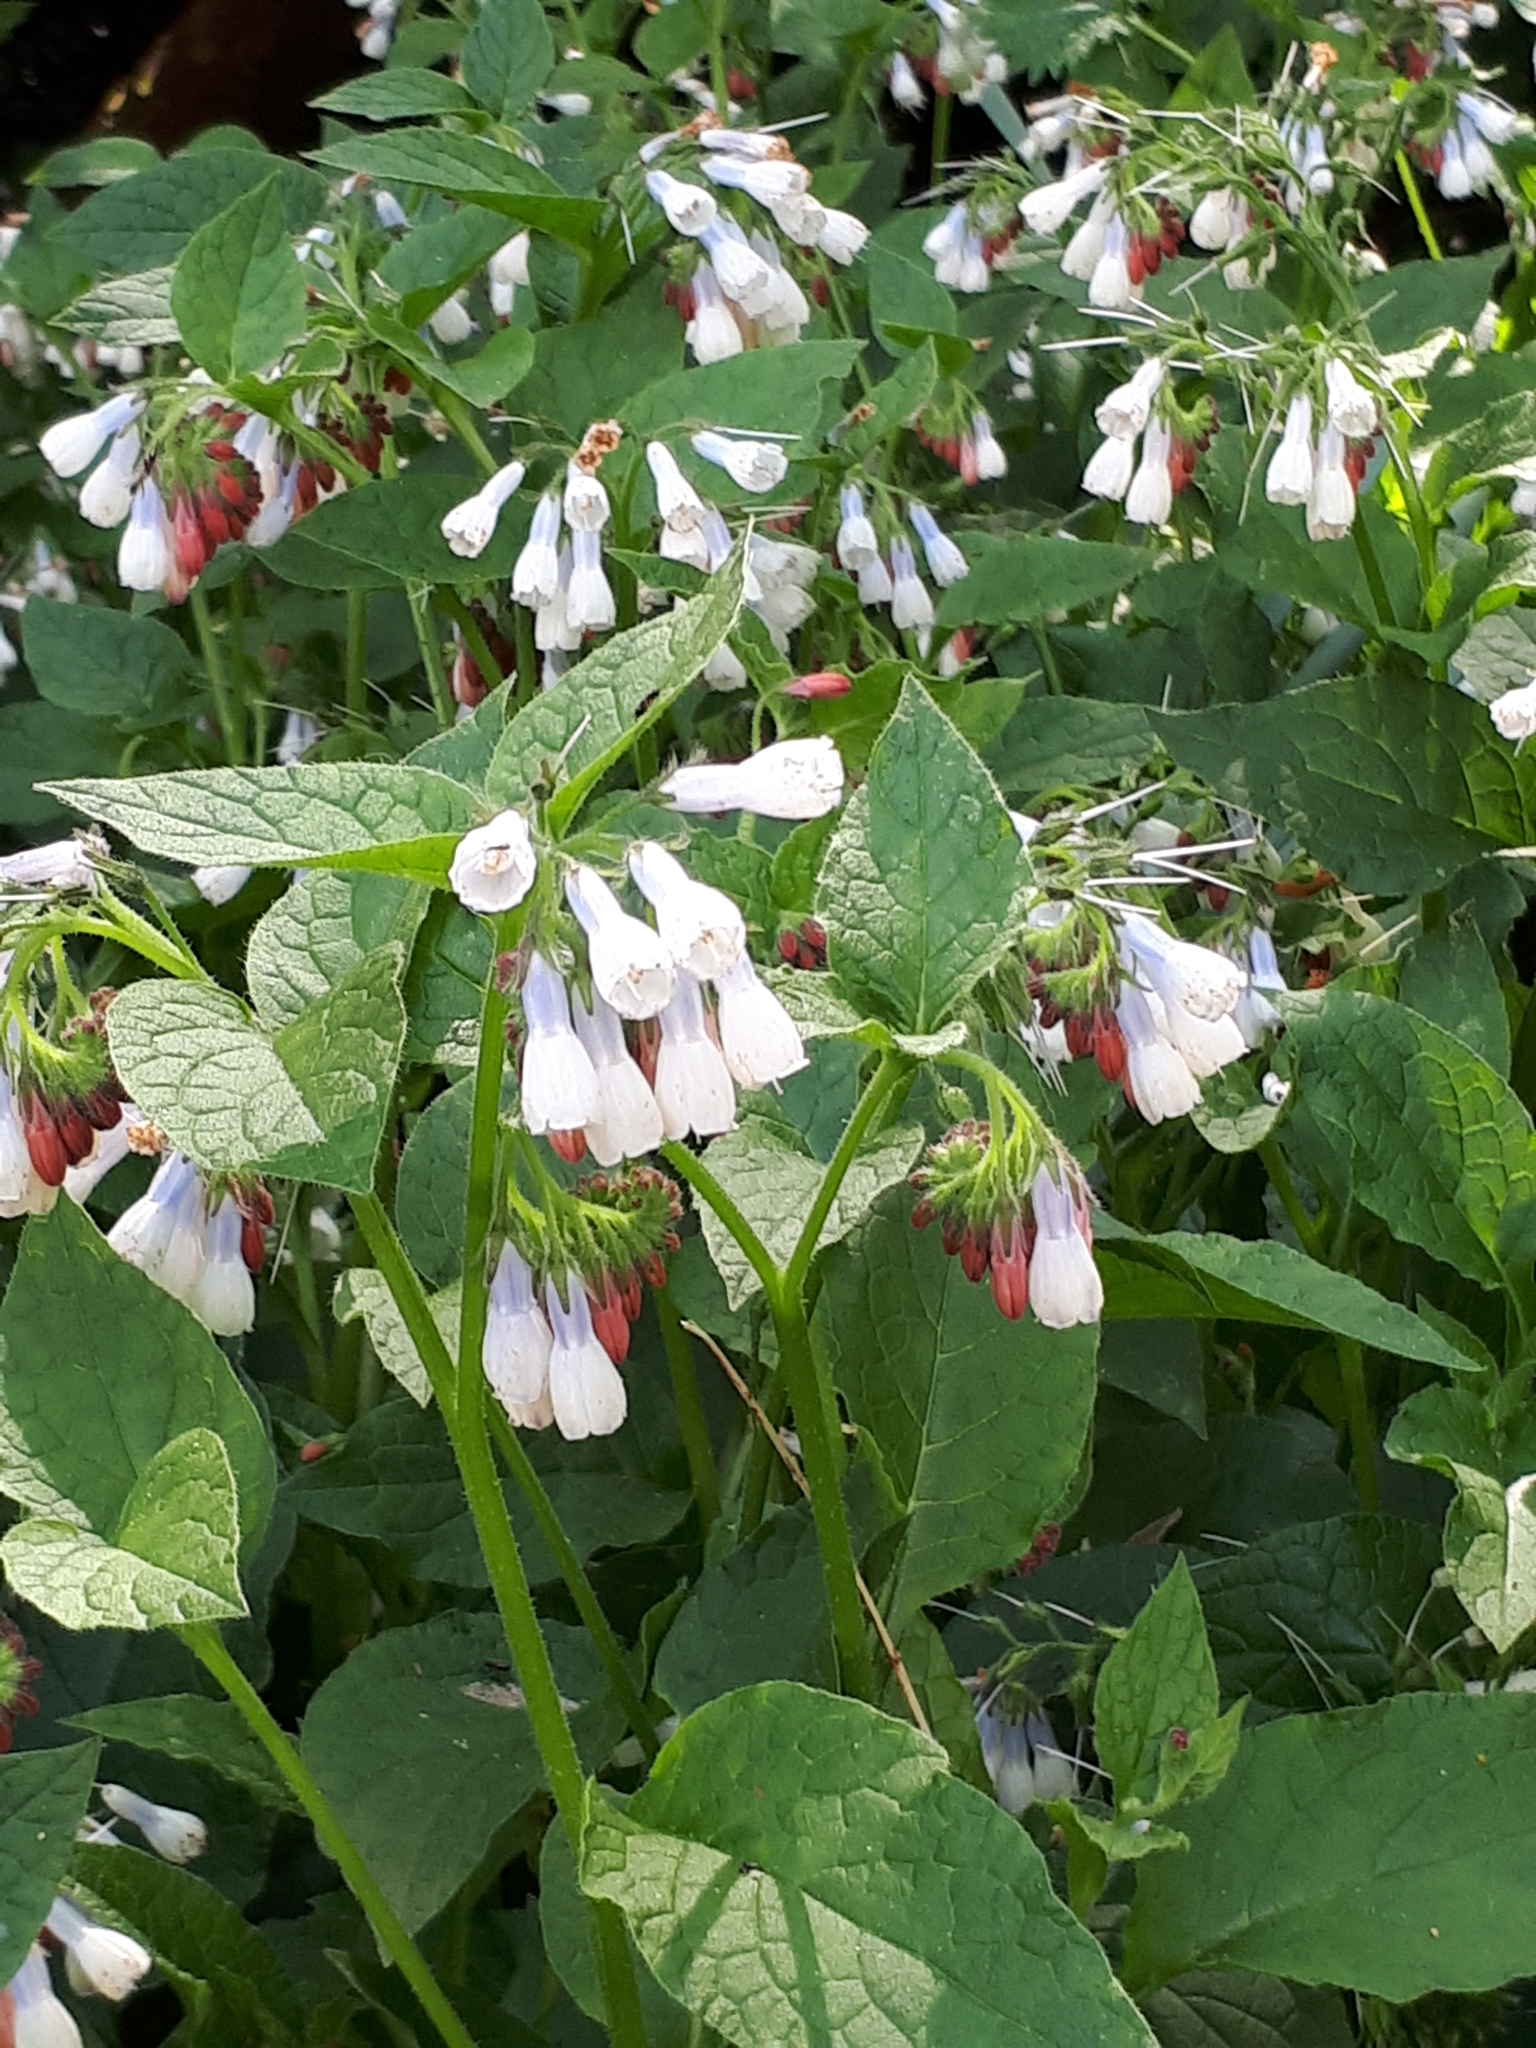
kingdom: Plantae
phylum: Tracheophyta
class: Magnoliopsida
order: Boraginales
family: Boraginaceae
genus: Symphytum
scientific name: Symphytum officinale
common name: Common comfrey
